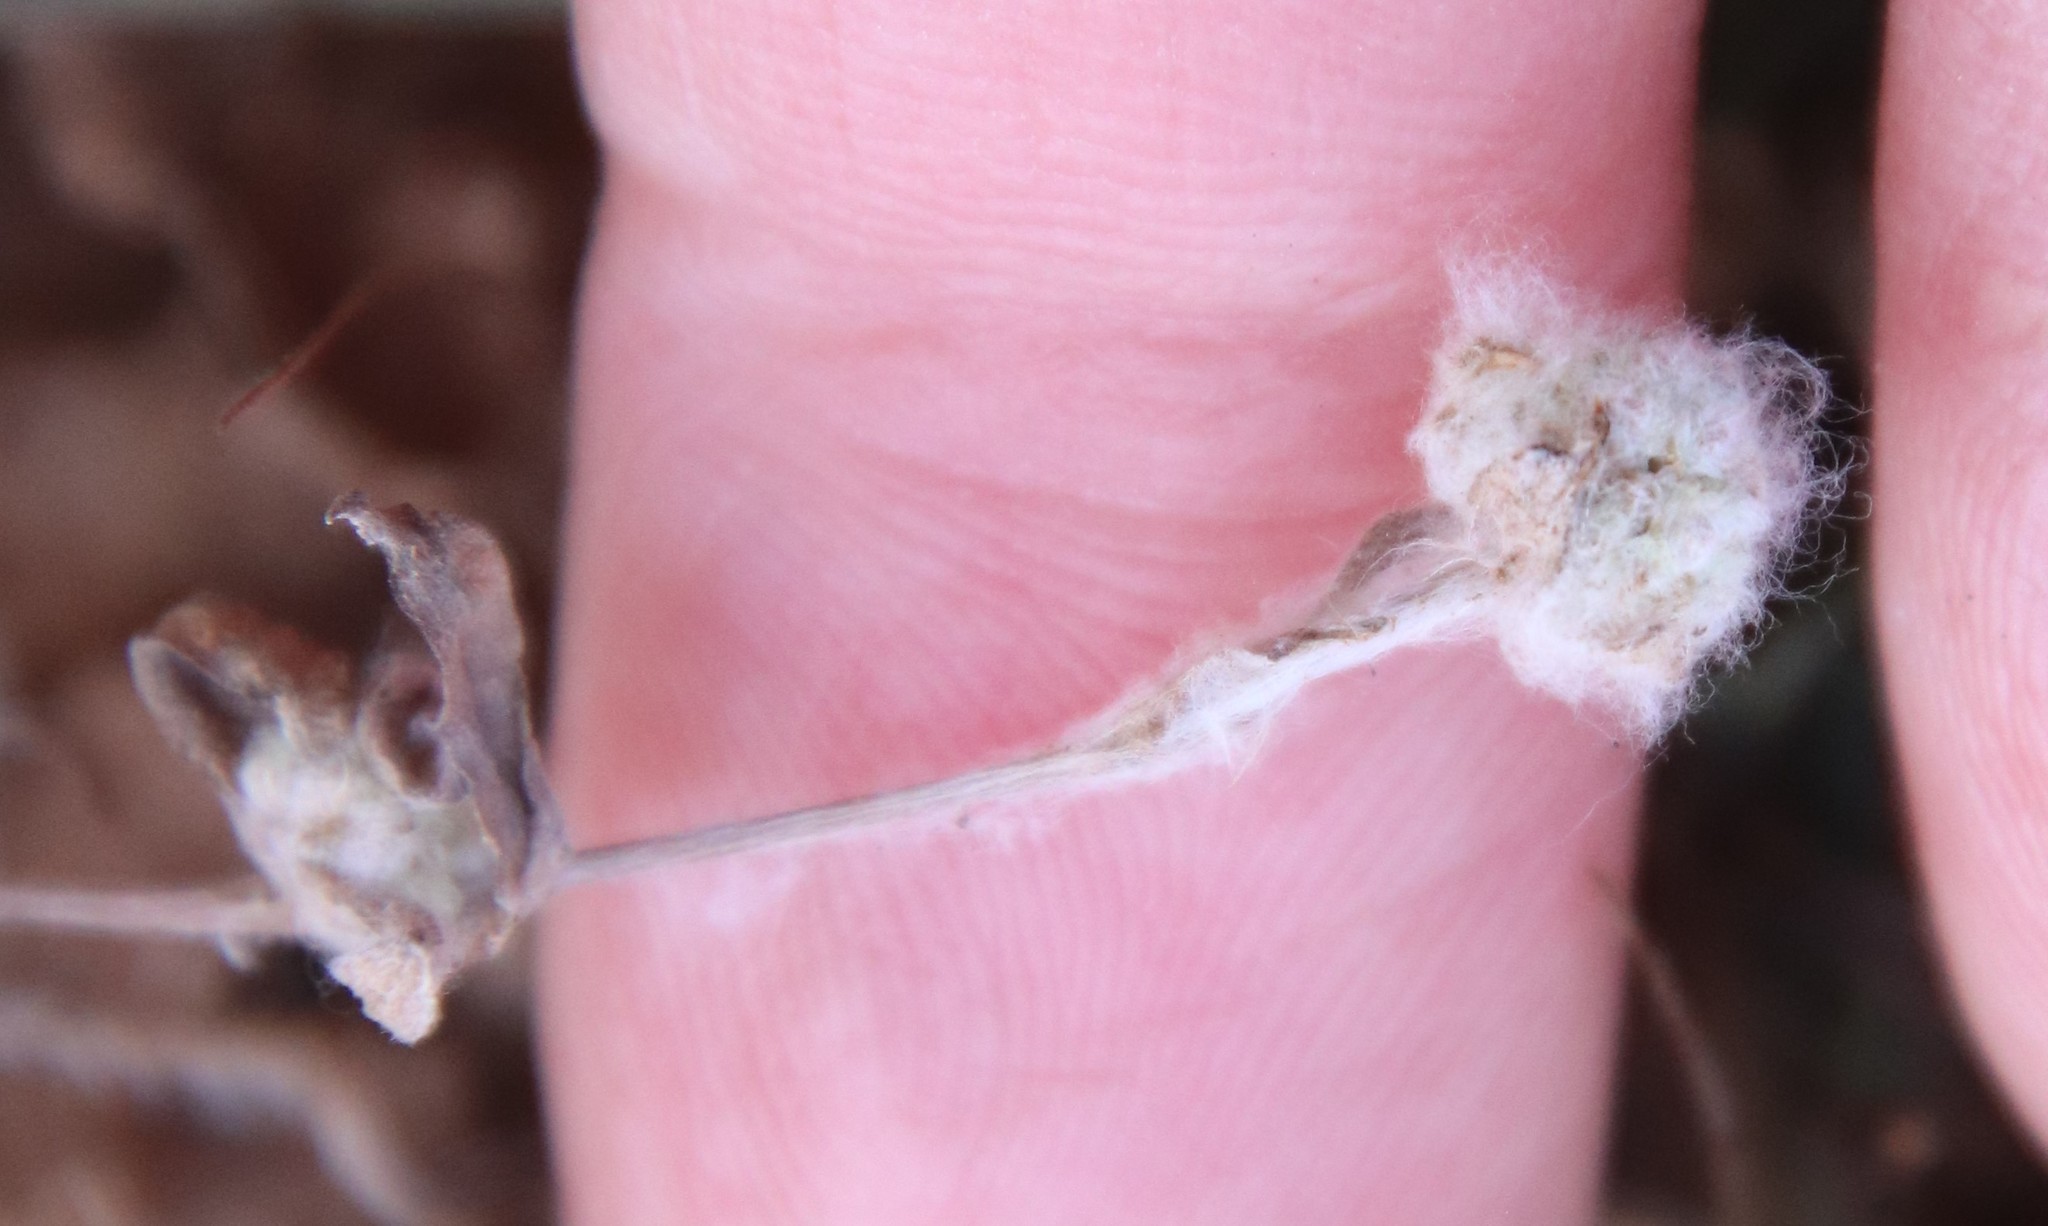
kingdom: Plantae
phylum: Tracheophyta
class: Magnoliopsida
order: Asterales
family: Asteraceae
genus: Bombycilaena
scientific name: Bombycilaena californica
